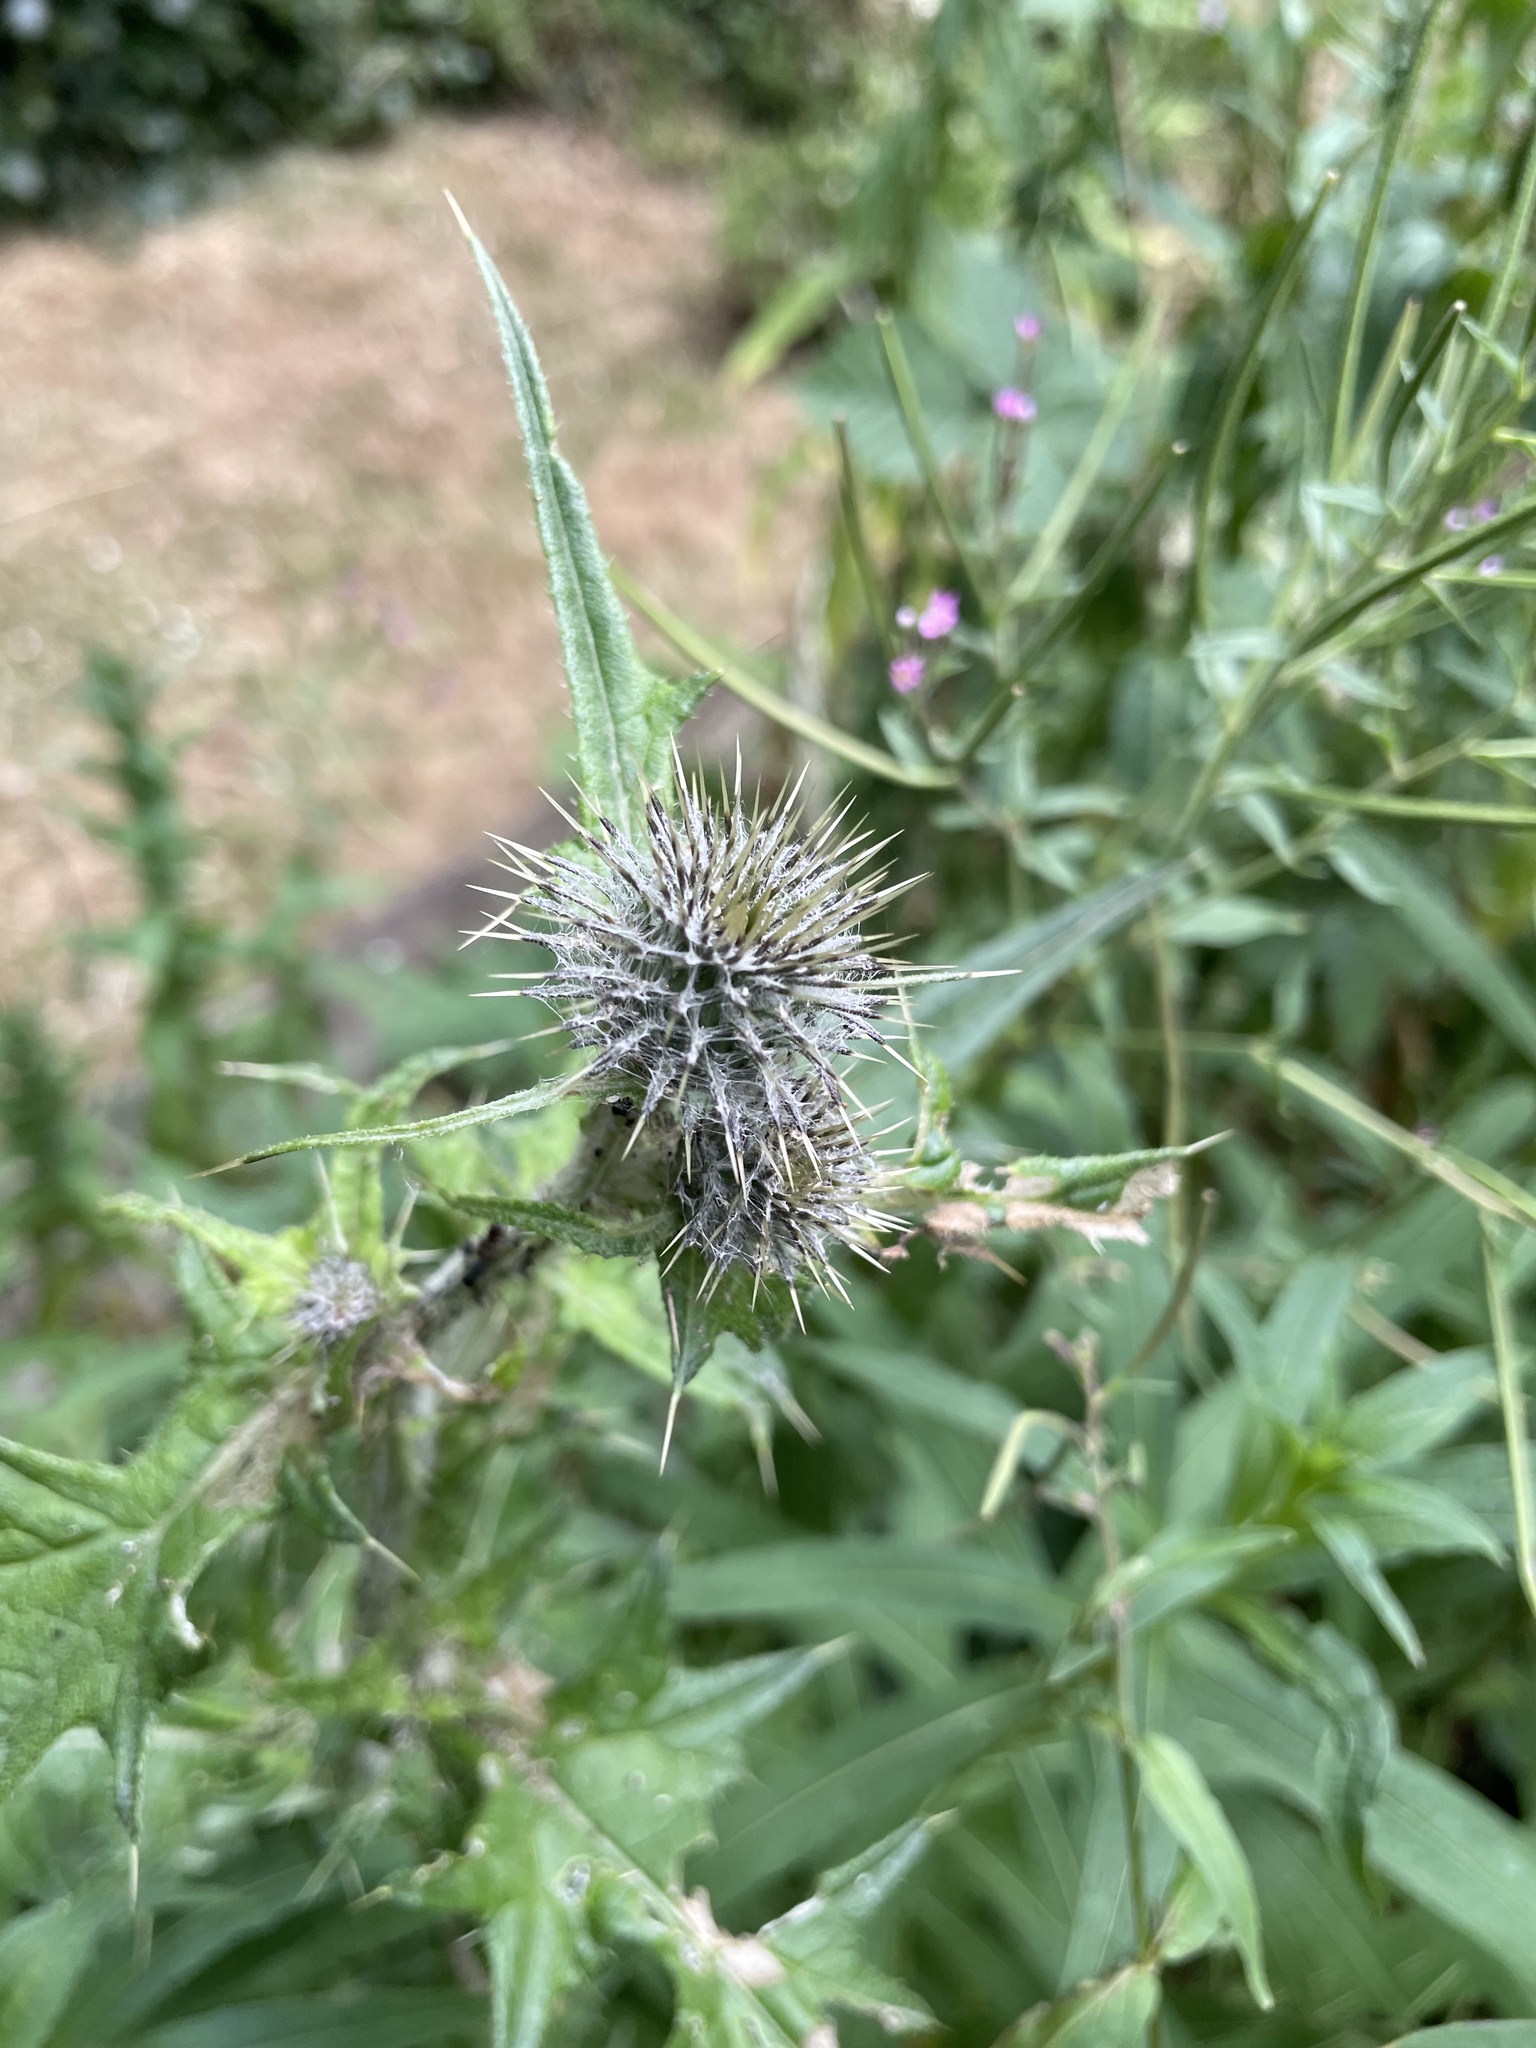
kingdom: Plantae
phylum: Tracheophyta
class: Magnoliopsida
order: Asterales
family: Asteraceae
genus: Cirsium
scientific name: Cirsium vulgare
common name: Bull thistle
